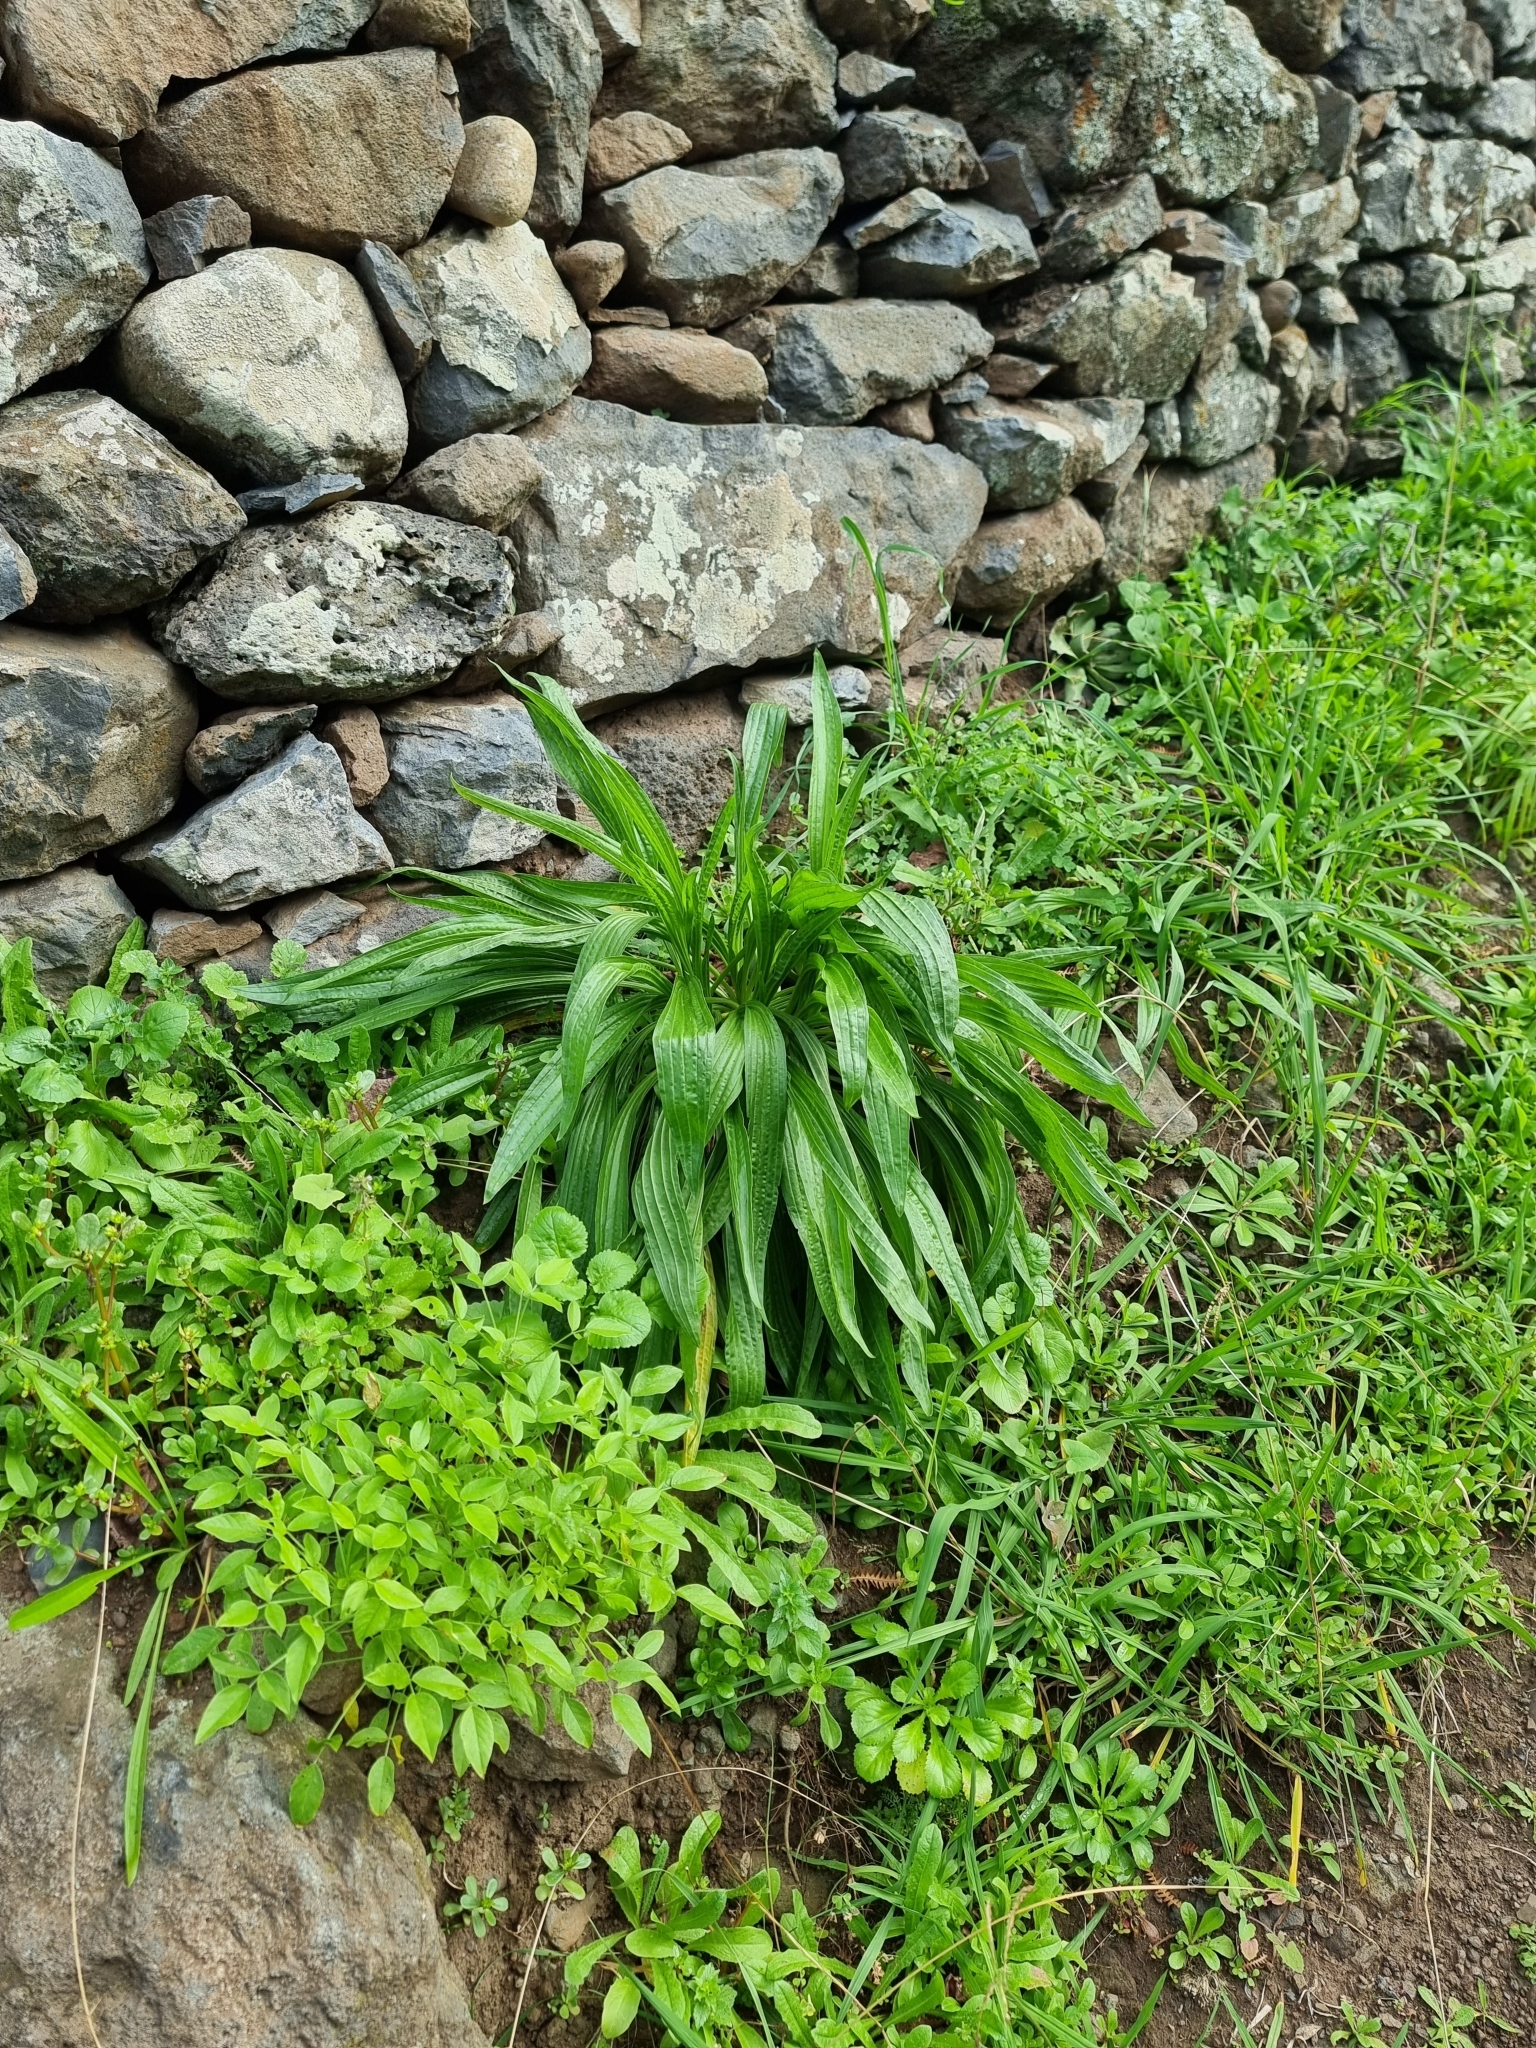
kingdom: Plantae
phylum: Tracheophyta
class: Magnoliopsida
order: Lamiales
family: Plantaginaceae
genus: Plantago
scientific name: Plantago lanceolata
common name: Ribwort plantain
